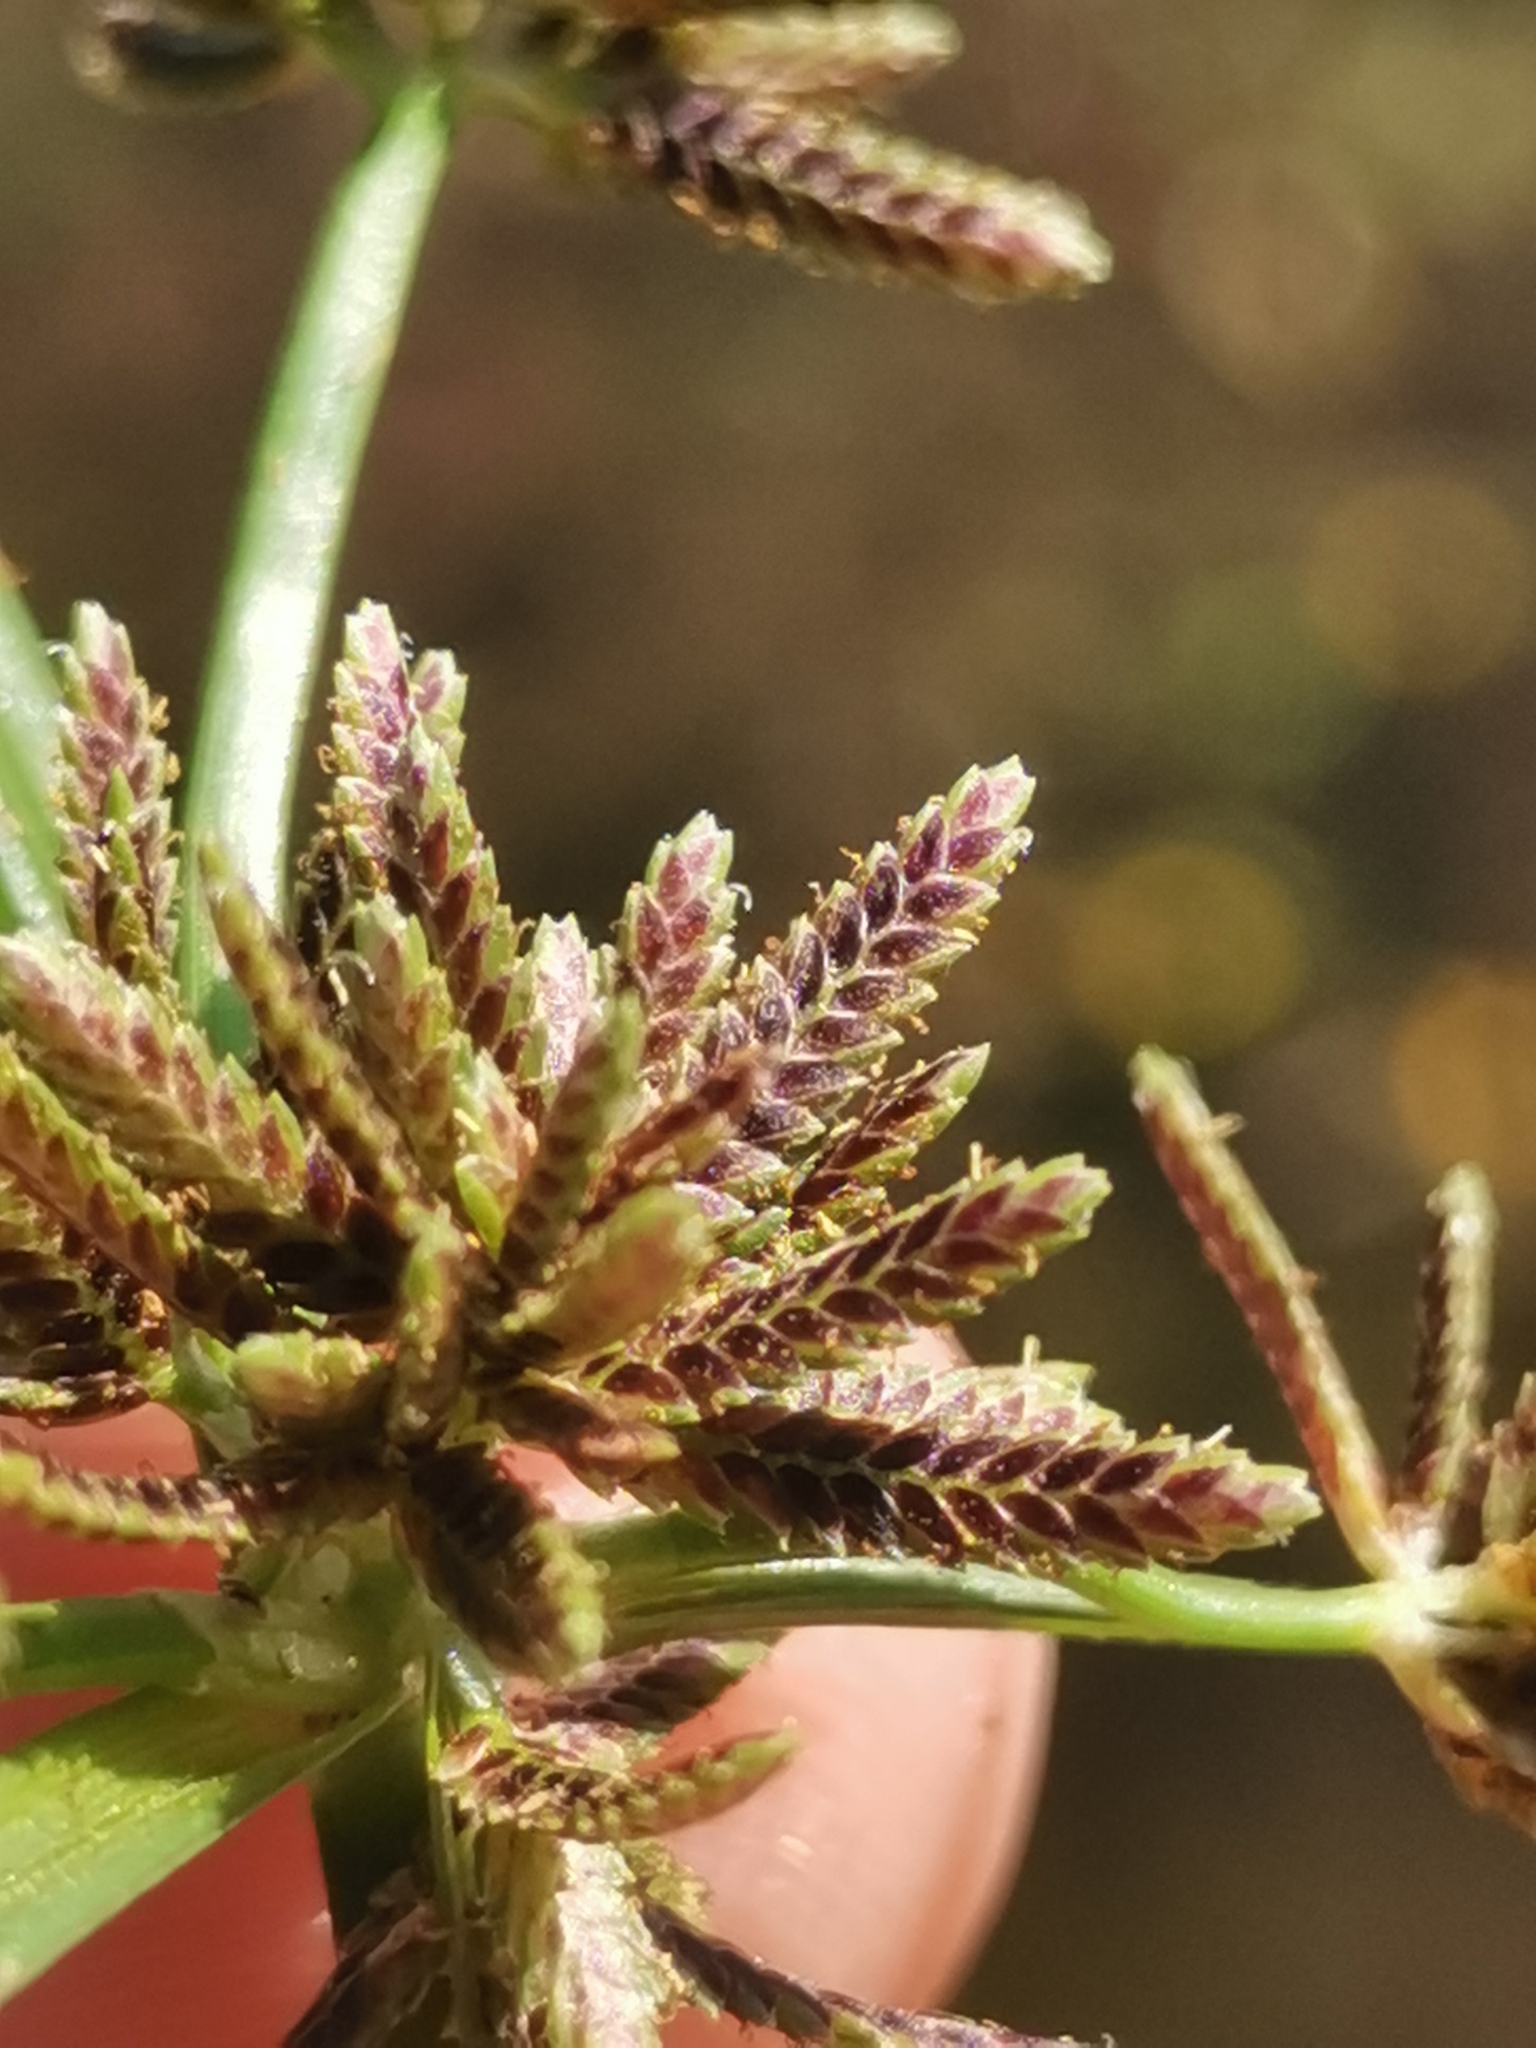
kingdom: Plantae
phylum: Tracheophyta
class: Liliopsida
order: Poales
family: Cyperaceae
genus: Cyperus
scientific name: Cyperus fuscus
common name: Brown galingale
